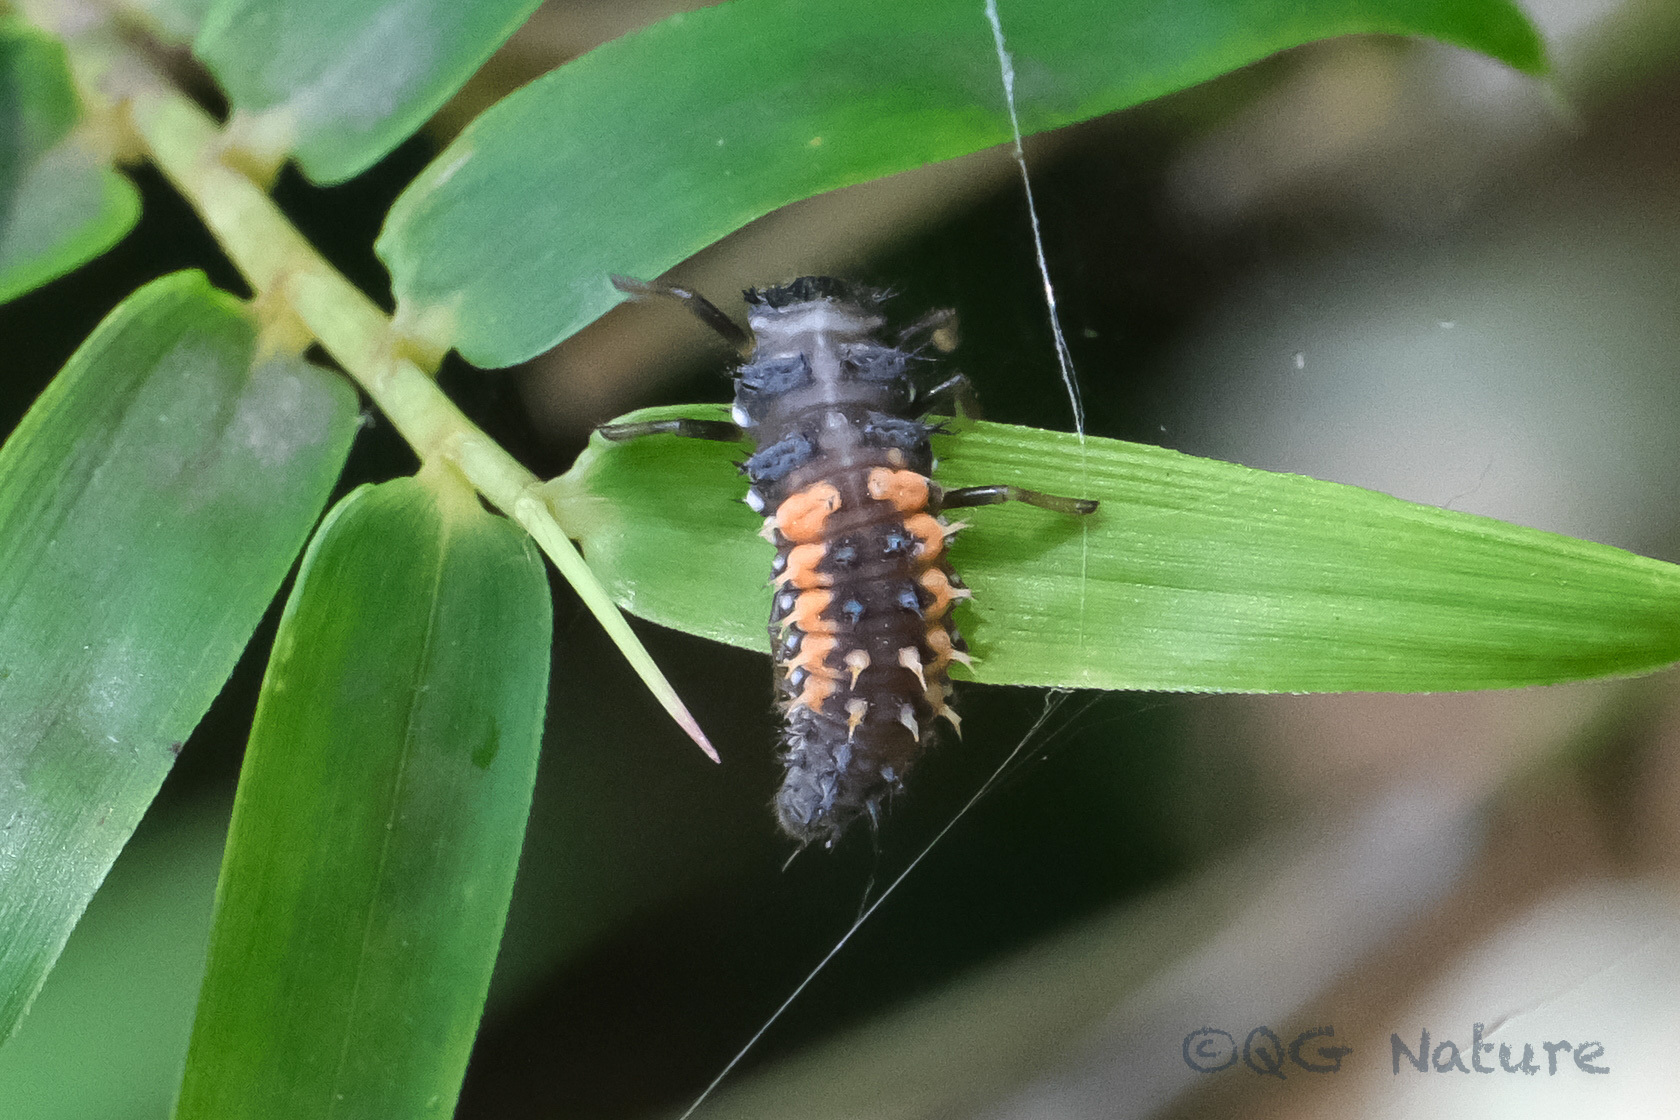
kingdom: Animalia
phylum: Arthropoda
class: Insecta
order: Coleoptera
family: Coccinellidae
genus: Harmonia
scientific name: Harmonia axyridis
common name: Harlequin ladybird
